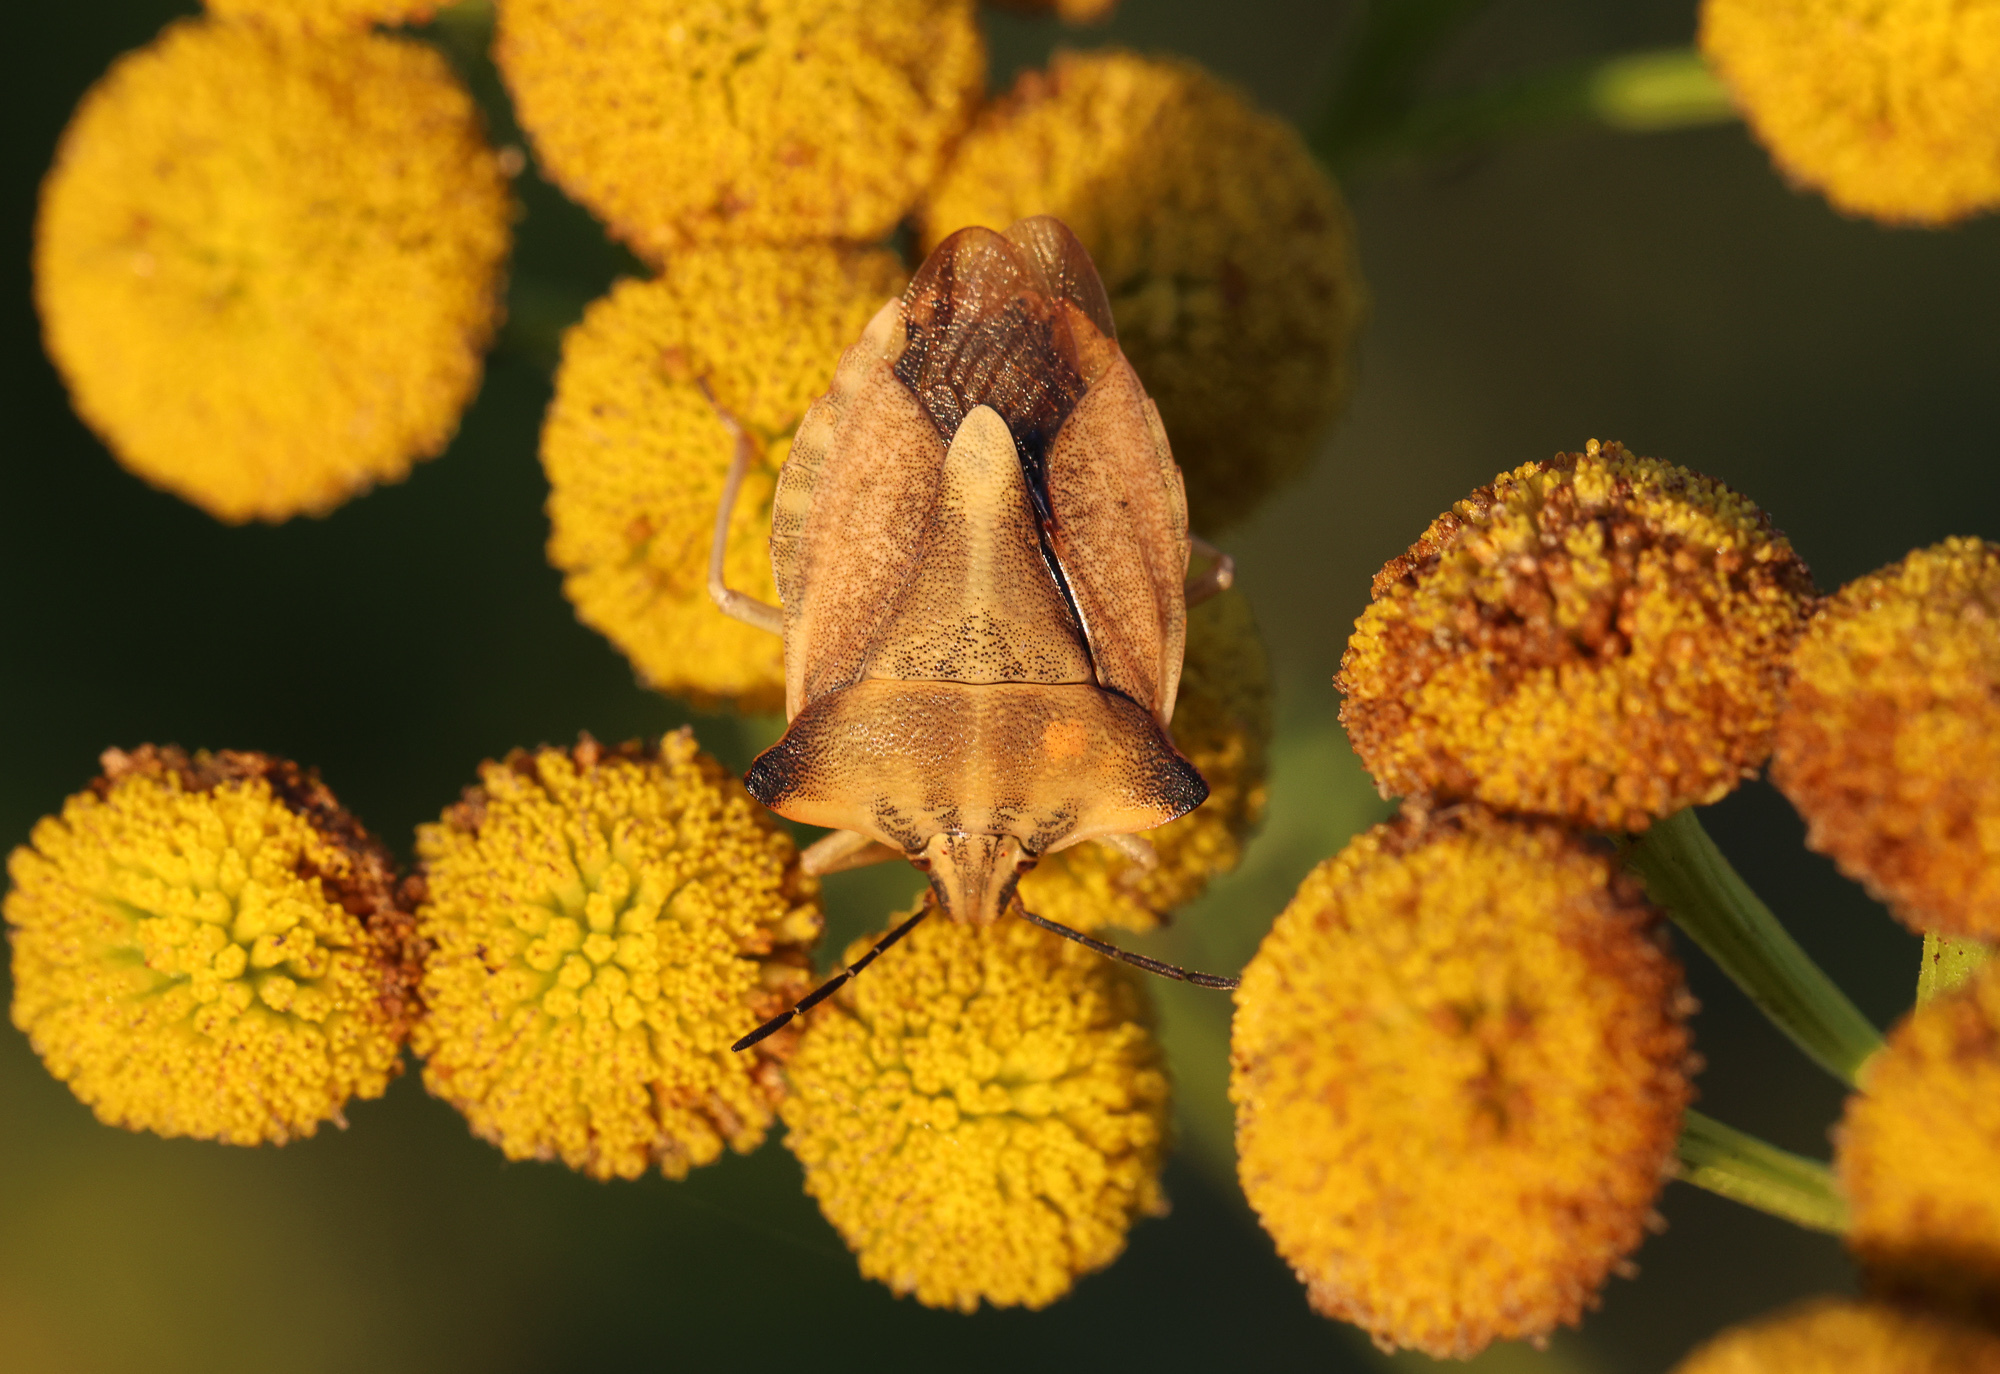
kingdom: Animalia
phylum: Arthropoda
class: Insecta
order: Hemiptera
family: Pentatomidae
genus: Carpocoris
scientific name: Carpocoris fuscispinus
